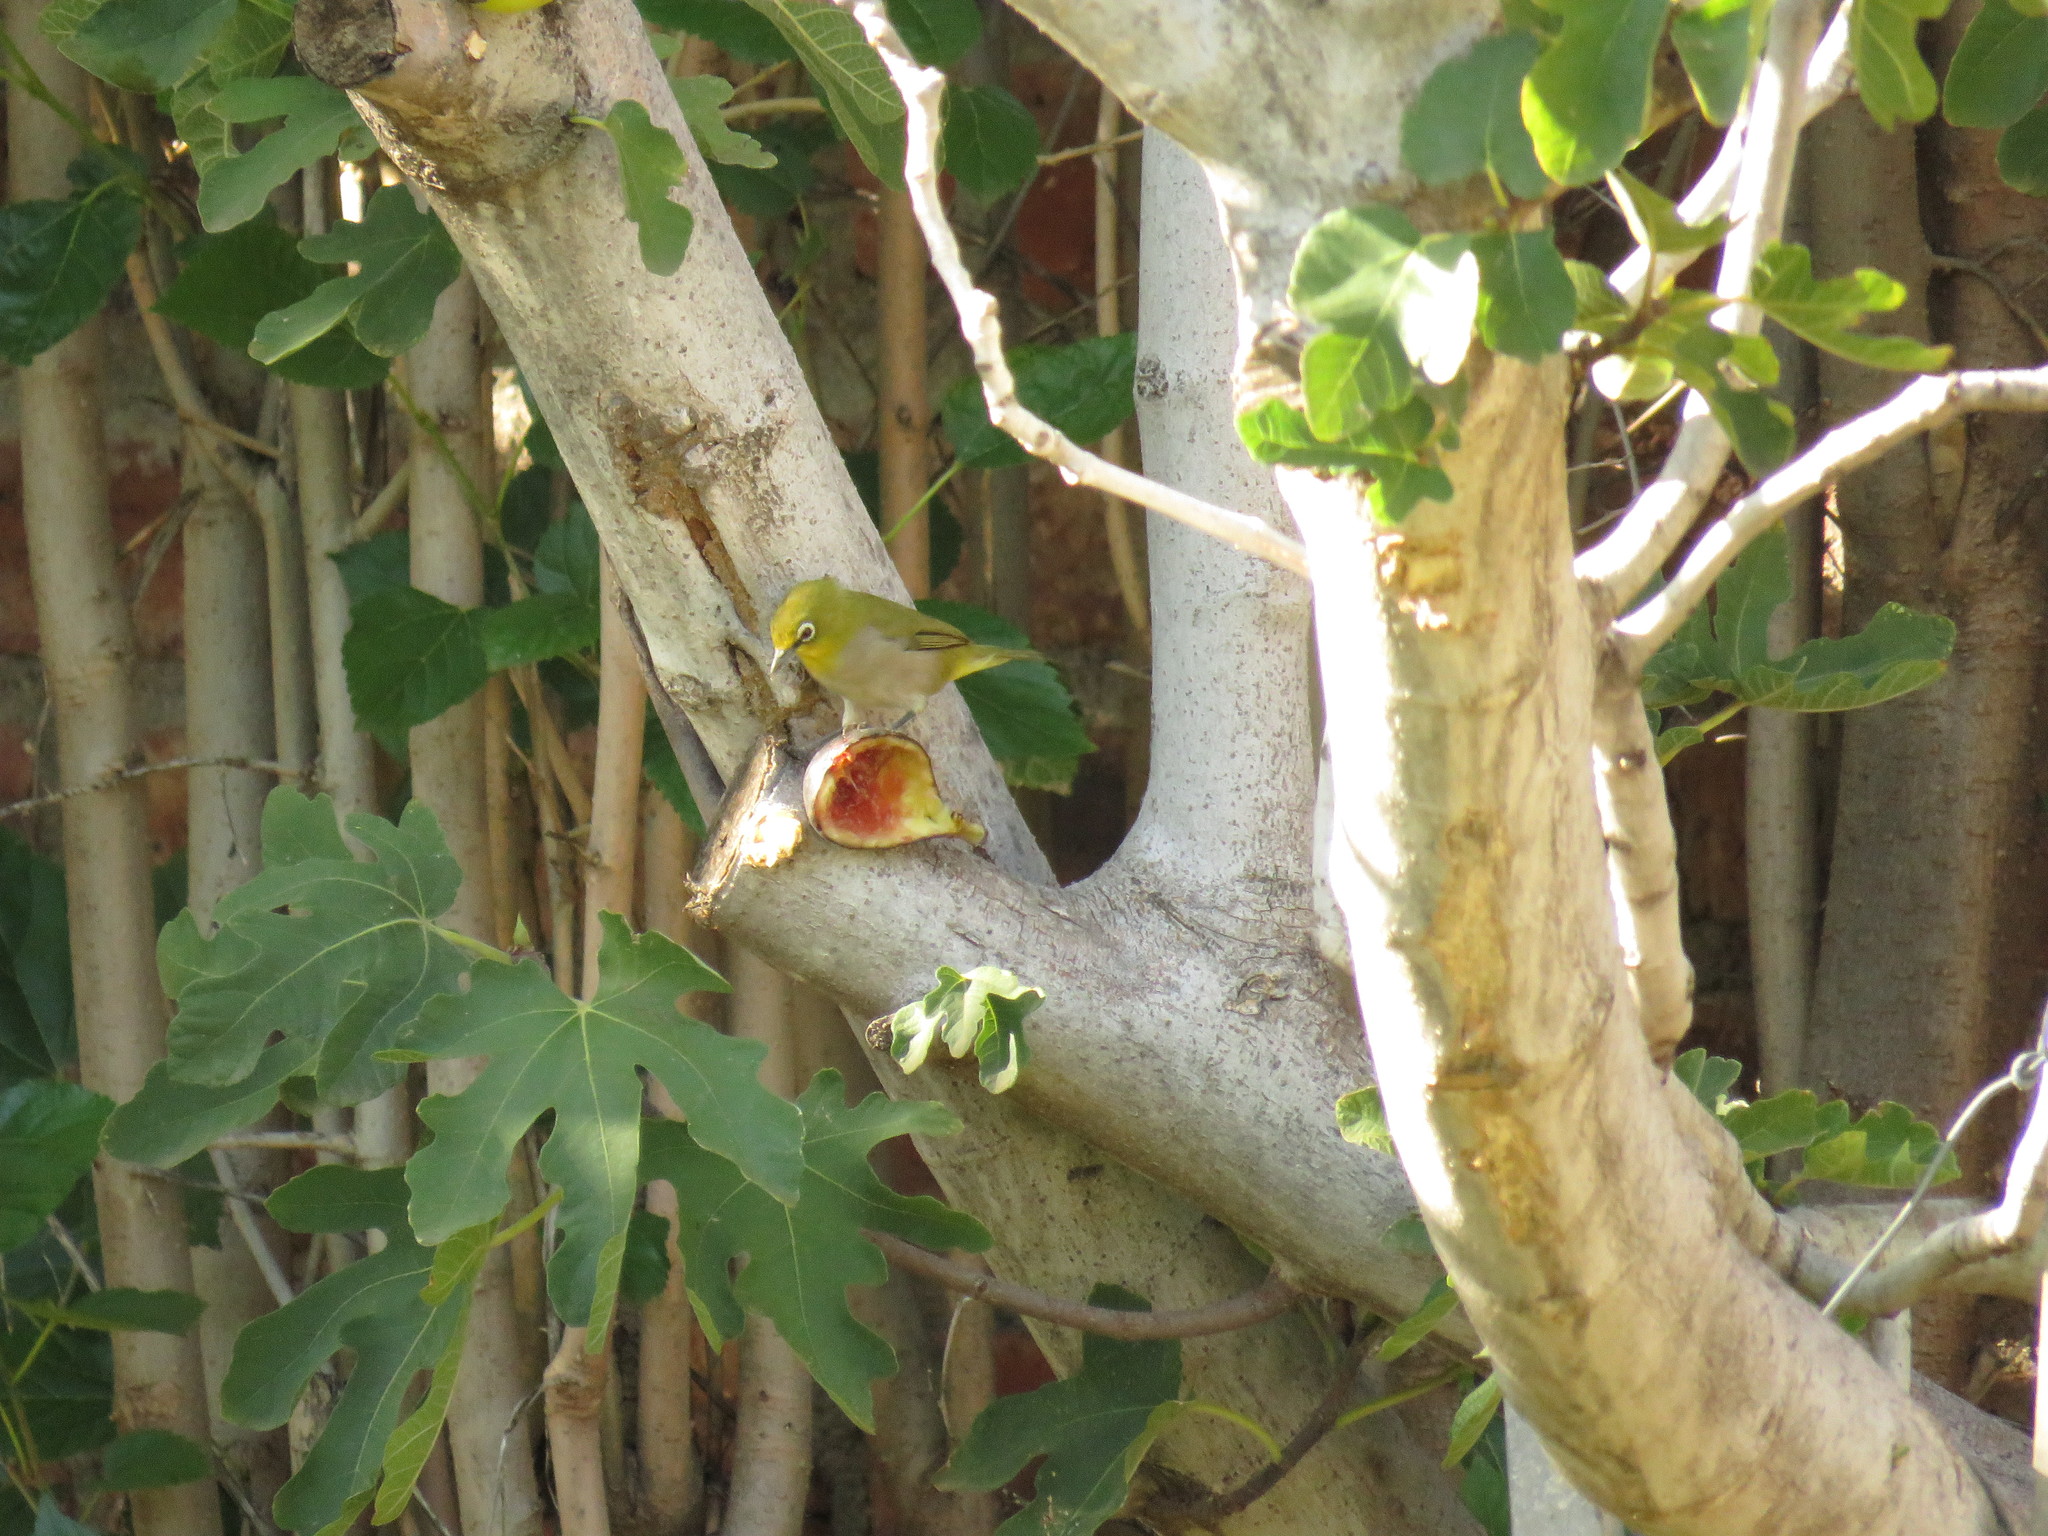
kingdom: Animalia
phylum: Chordata
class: Aves
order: Passeriformes
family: Zosteropidae
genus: Zosterops
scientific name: Zosterops virens
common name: Cape white-eye
